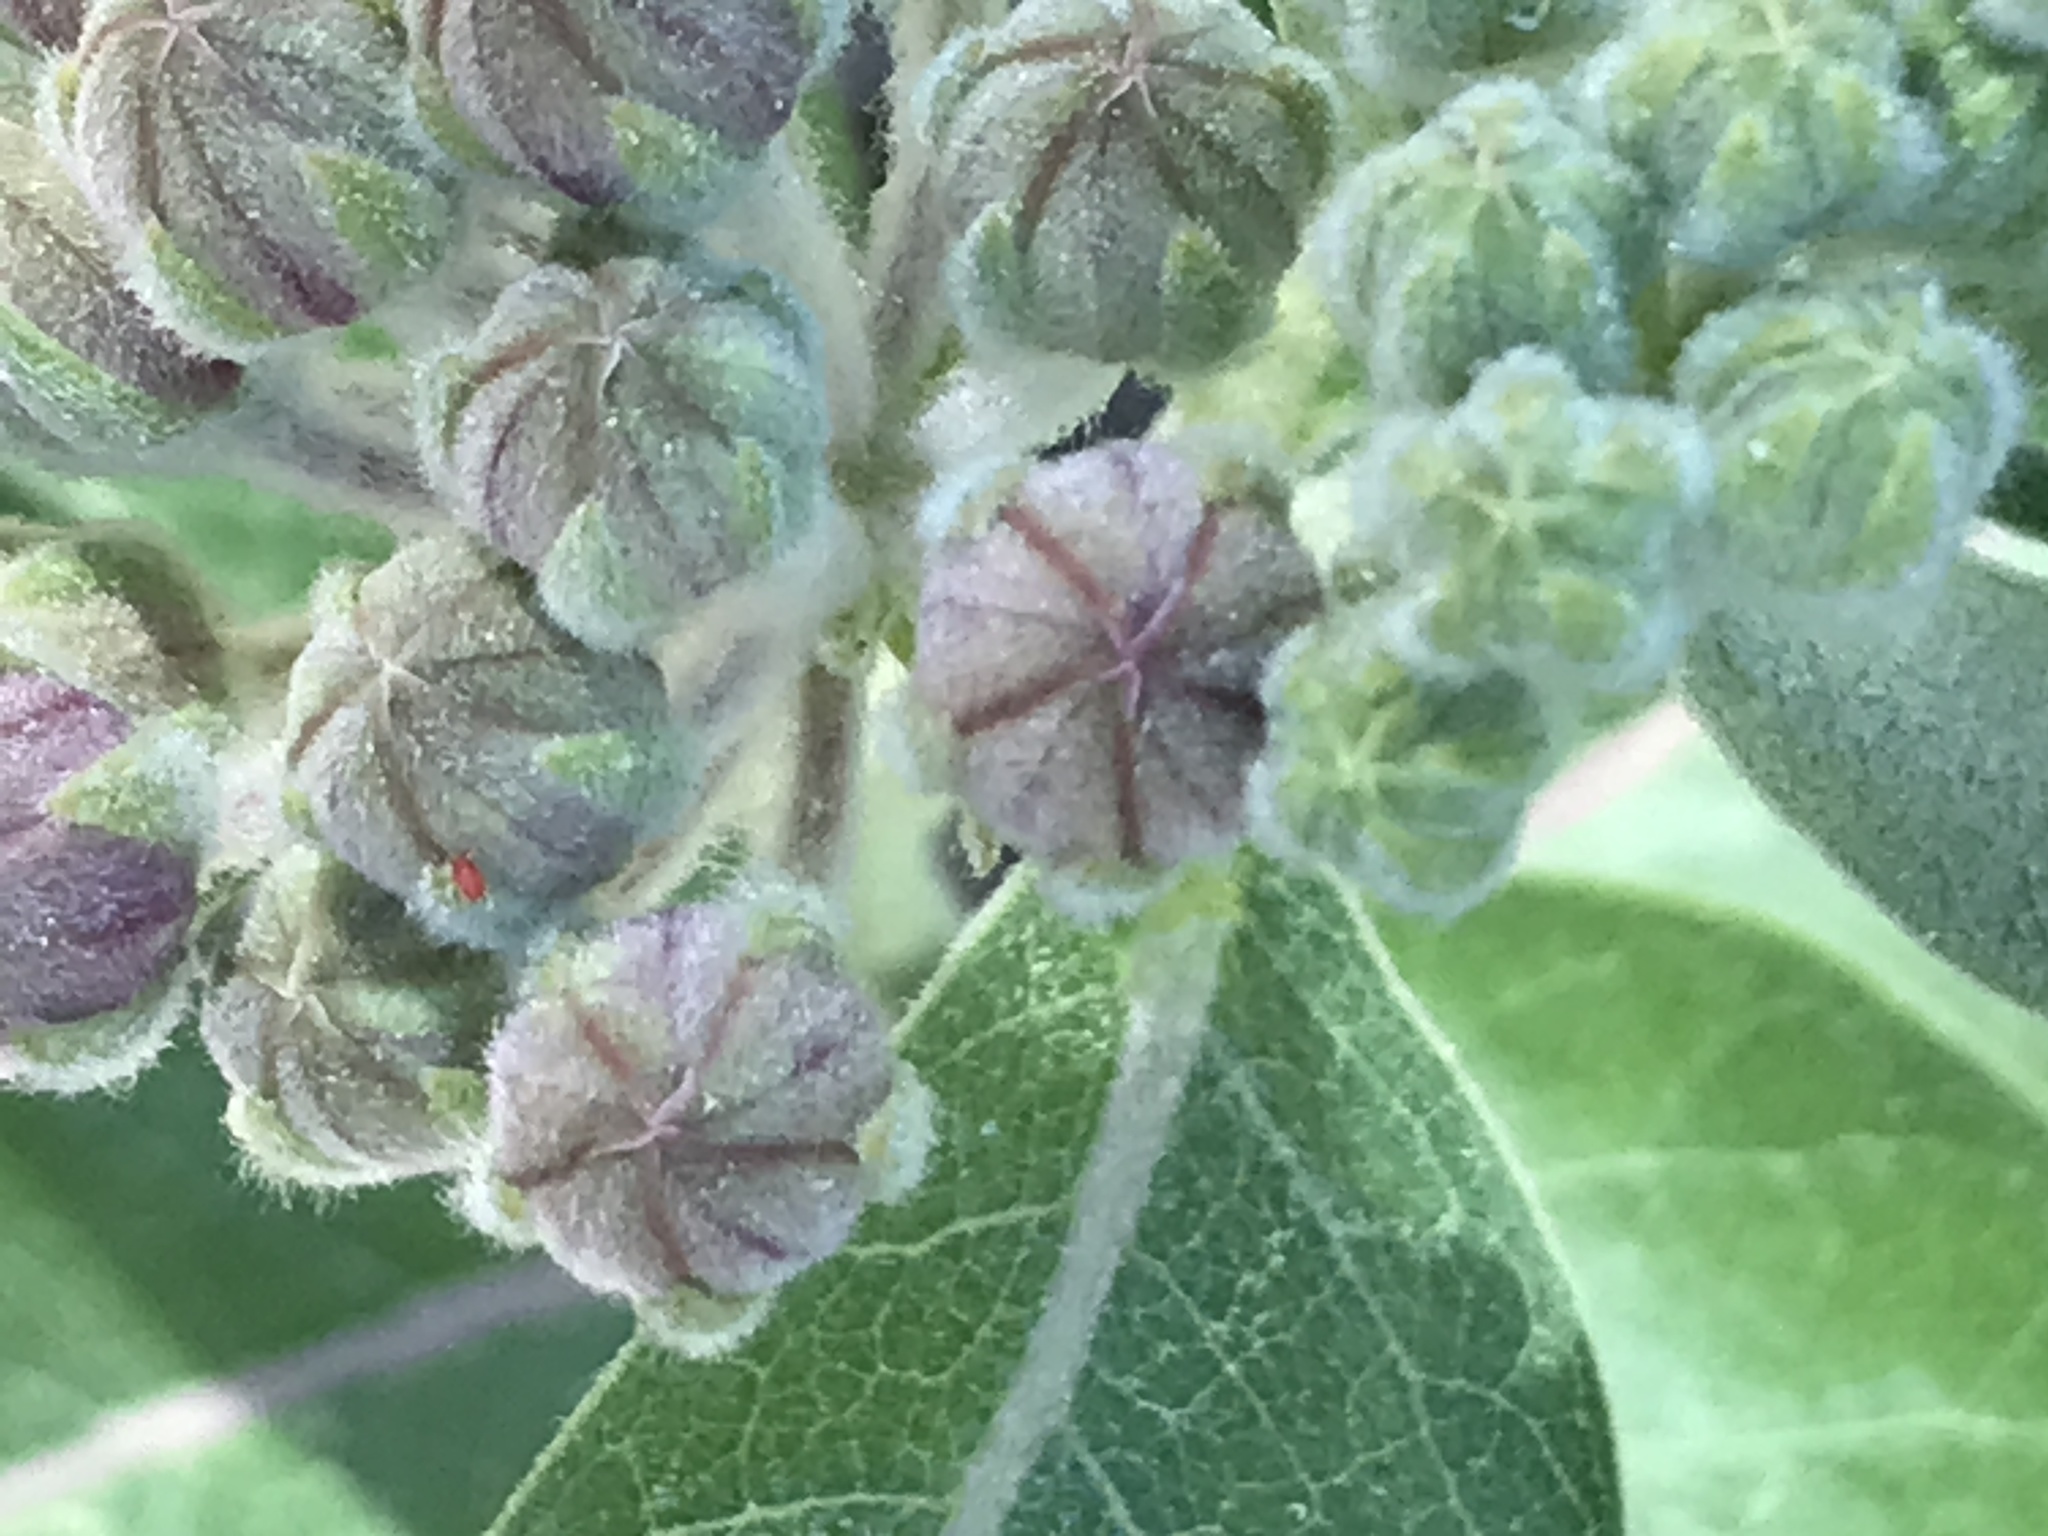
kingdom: Plantae
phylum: Tracheophyta
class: Magnoliopsida
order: Gentianales
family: Apocynaceae
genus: Asclepias
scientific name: Asclepias speciosa
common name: Showy milkweed
